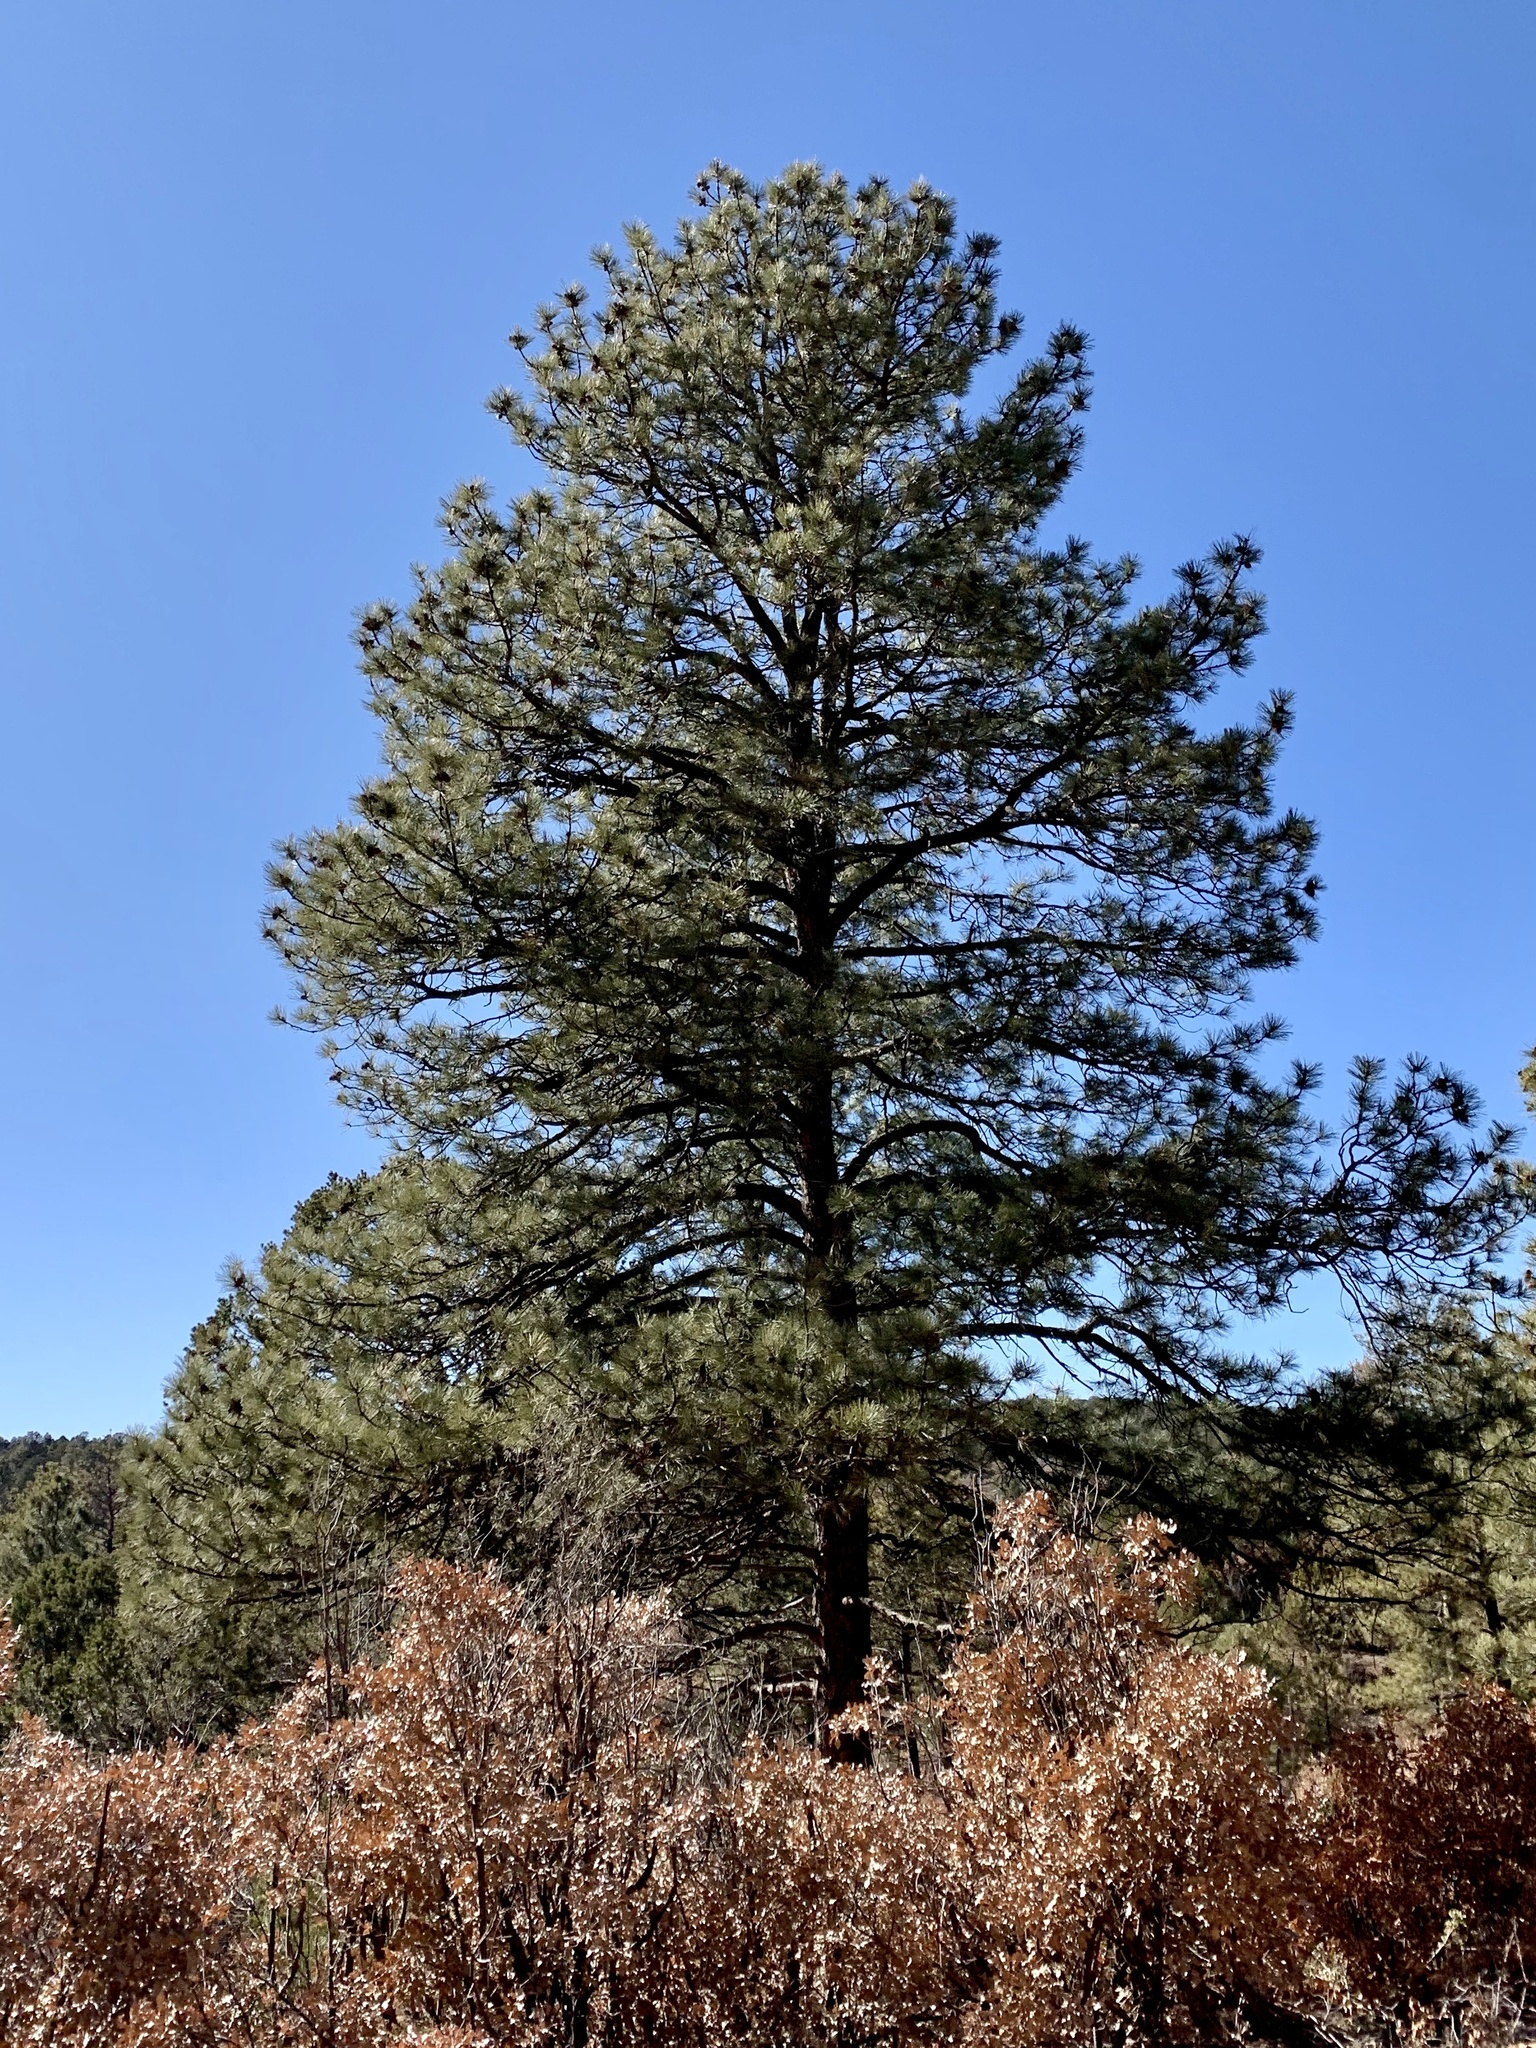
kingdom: Plantae
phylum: Tracheophyta
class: Pinopsida
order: Pinales
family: Pinaceae
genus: Pinus
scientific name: Pinus ponderosa
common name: Western yellow-pine
